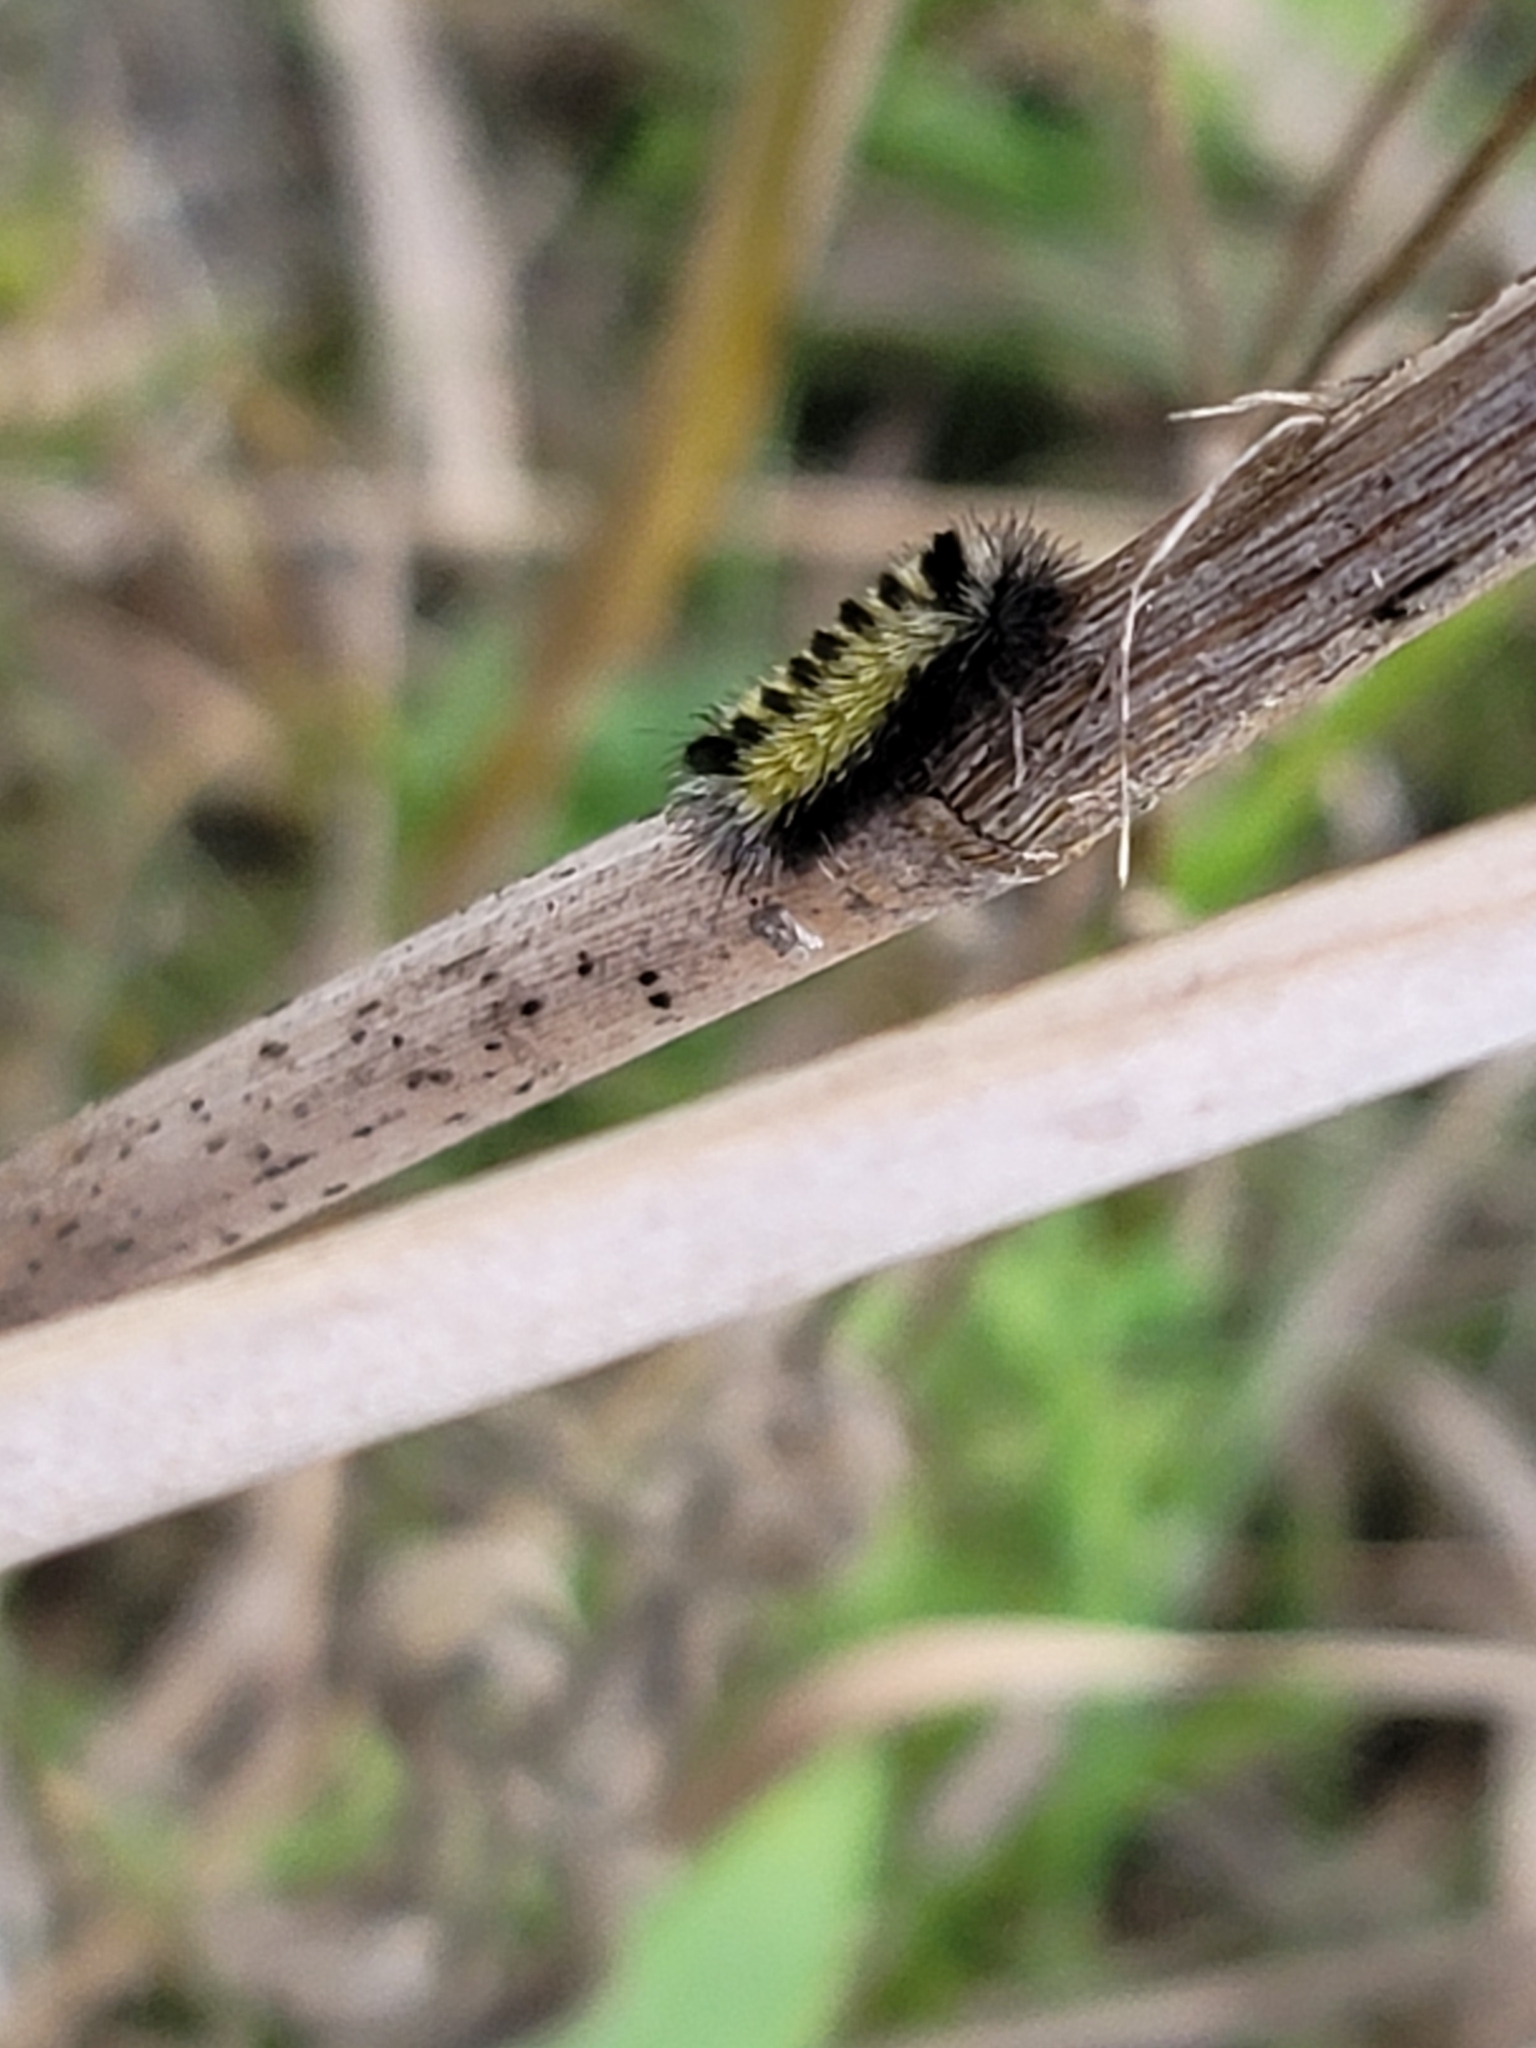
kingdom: Animalia
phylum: Arthropoda
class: Insecta
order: Lepidoptera
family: Erebidae
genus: Ctenucha
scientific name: Ctenucha virginica
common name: Virginia ctenucha moth
